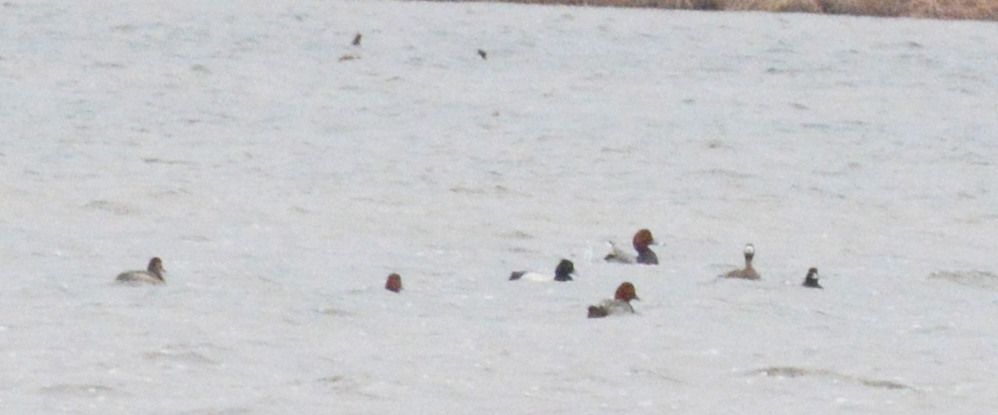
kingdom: Animalia
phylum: Chordata
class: Aves
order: Anseriformes
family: Anatidae
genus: Aythya
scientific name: Aythya affinis
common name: Lesser scaup
